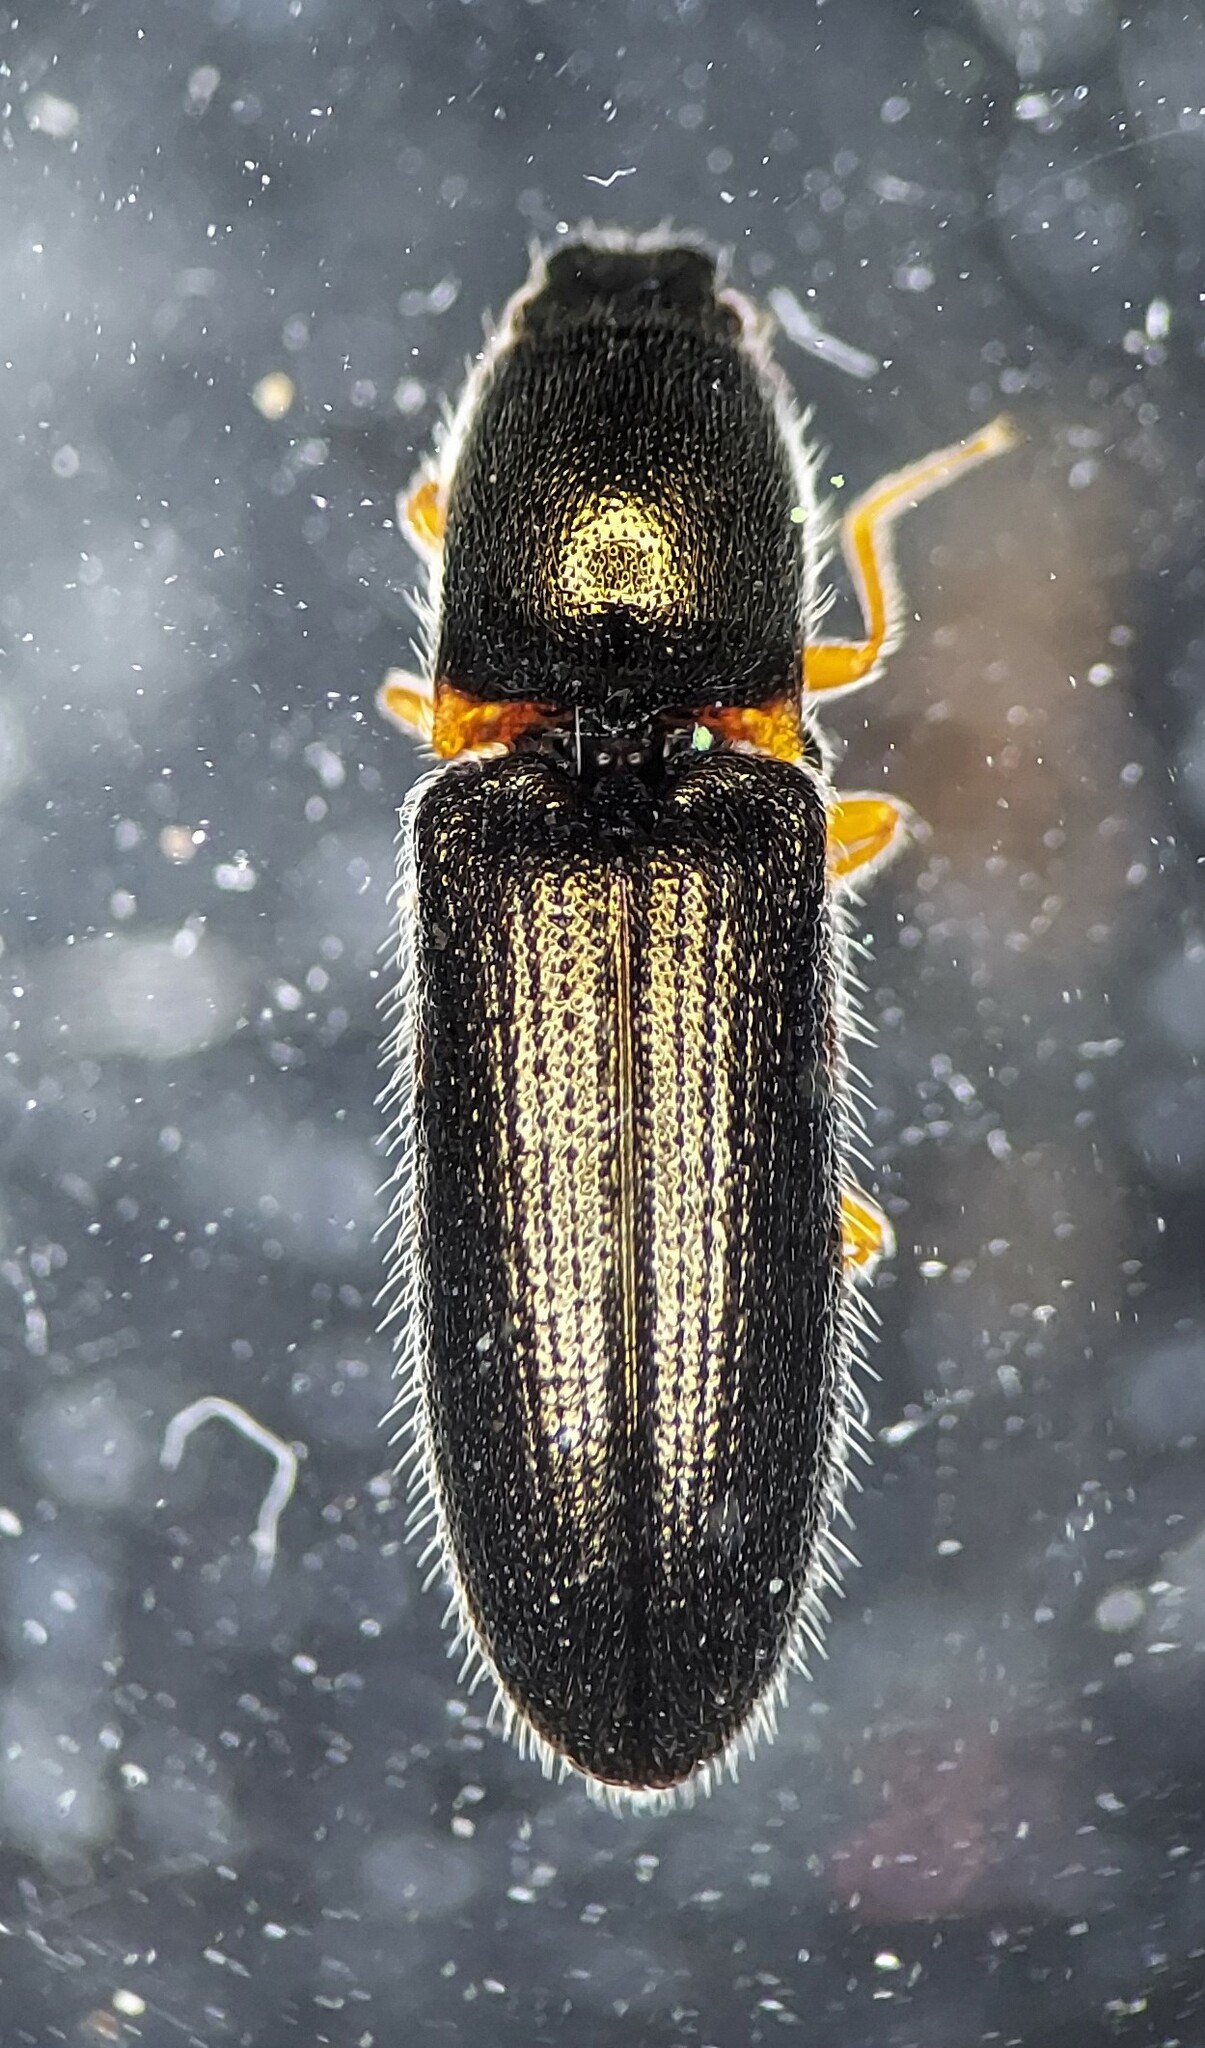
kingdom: Animalia
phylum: Arthropoda
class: Insecta
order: Coleoptera
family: Elateridae
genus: Limonius
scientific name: Limonius basilaris
